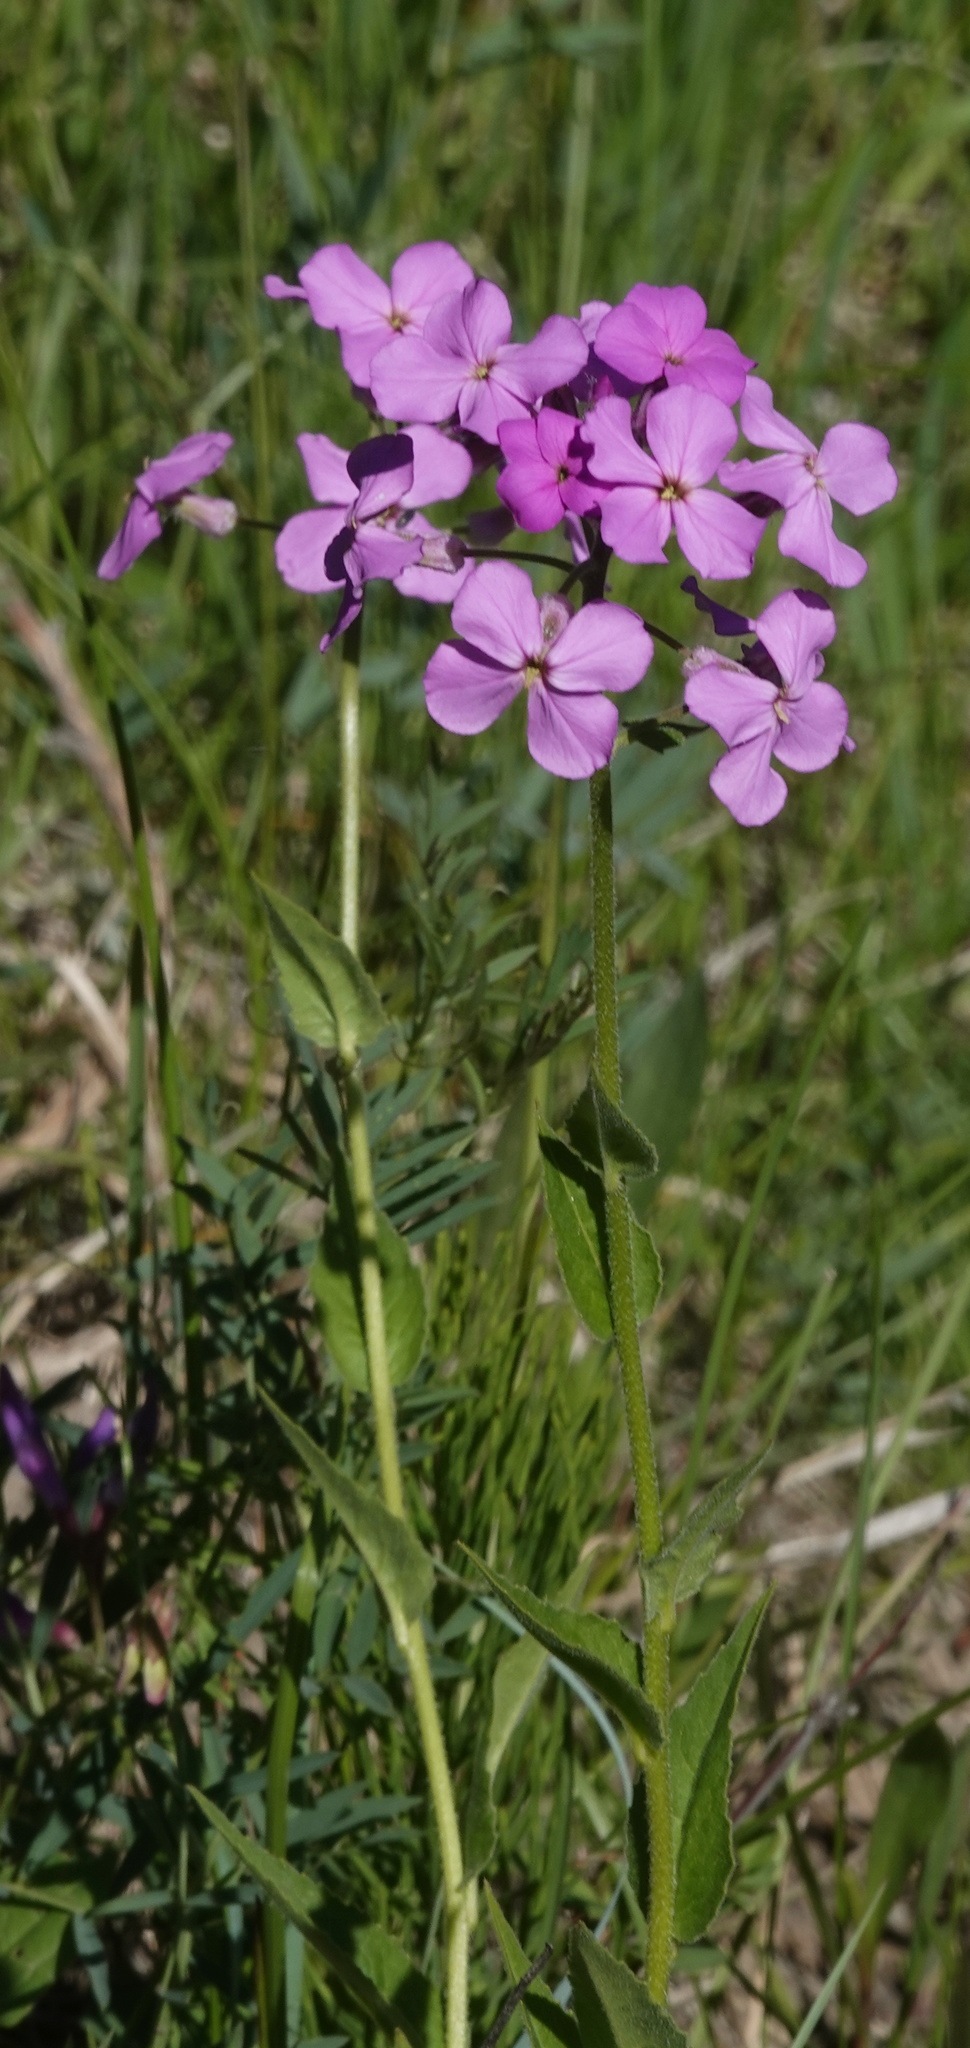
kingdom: Plantae
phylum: Tracheophyta
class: Magnoliopsida
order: Brassicales
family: Brassicaceae
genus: Hesperis
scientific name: Hesperis matronalis
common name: Dame's-violet
